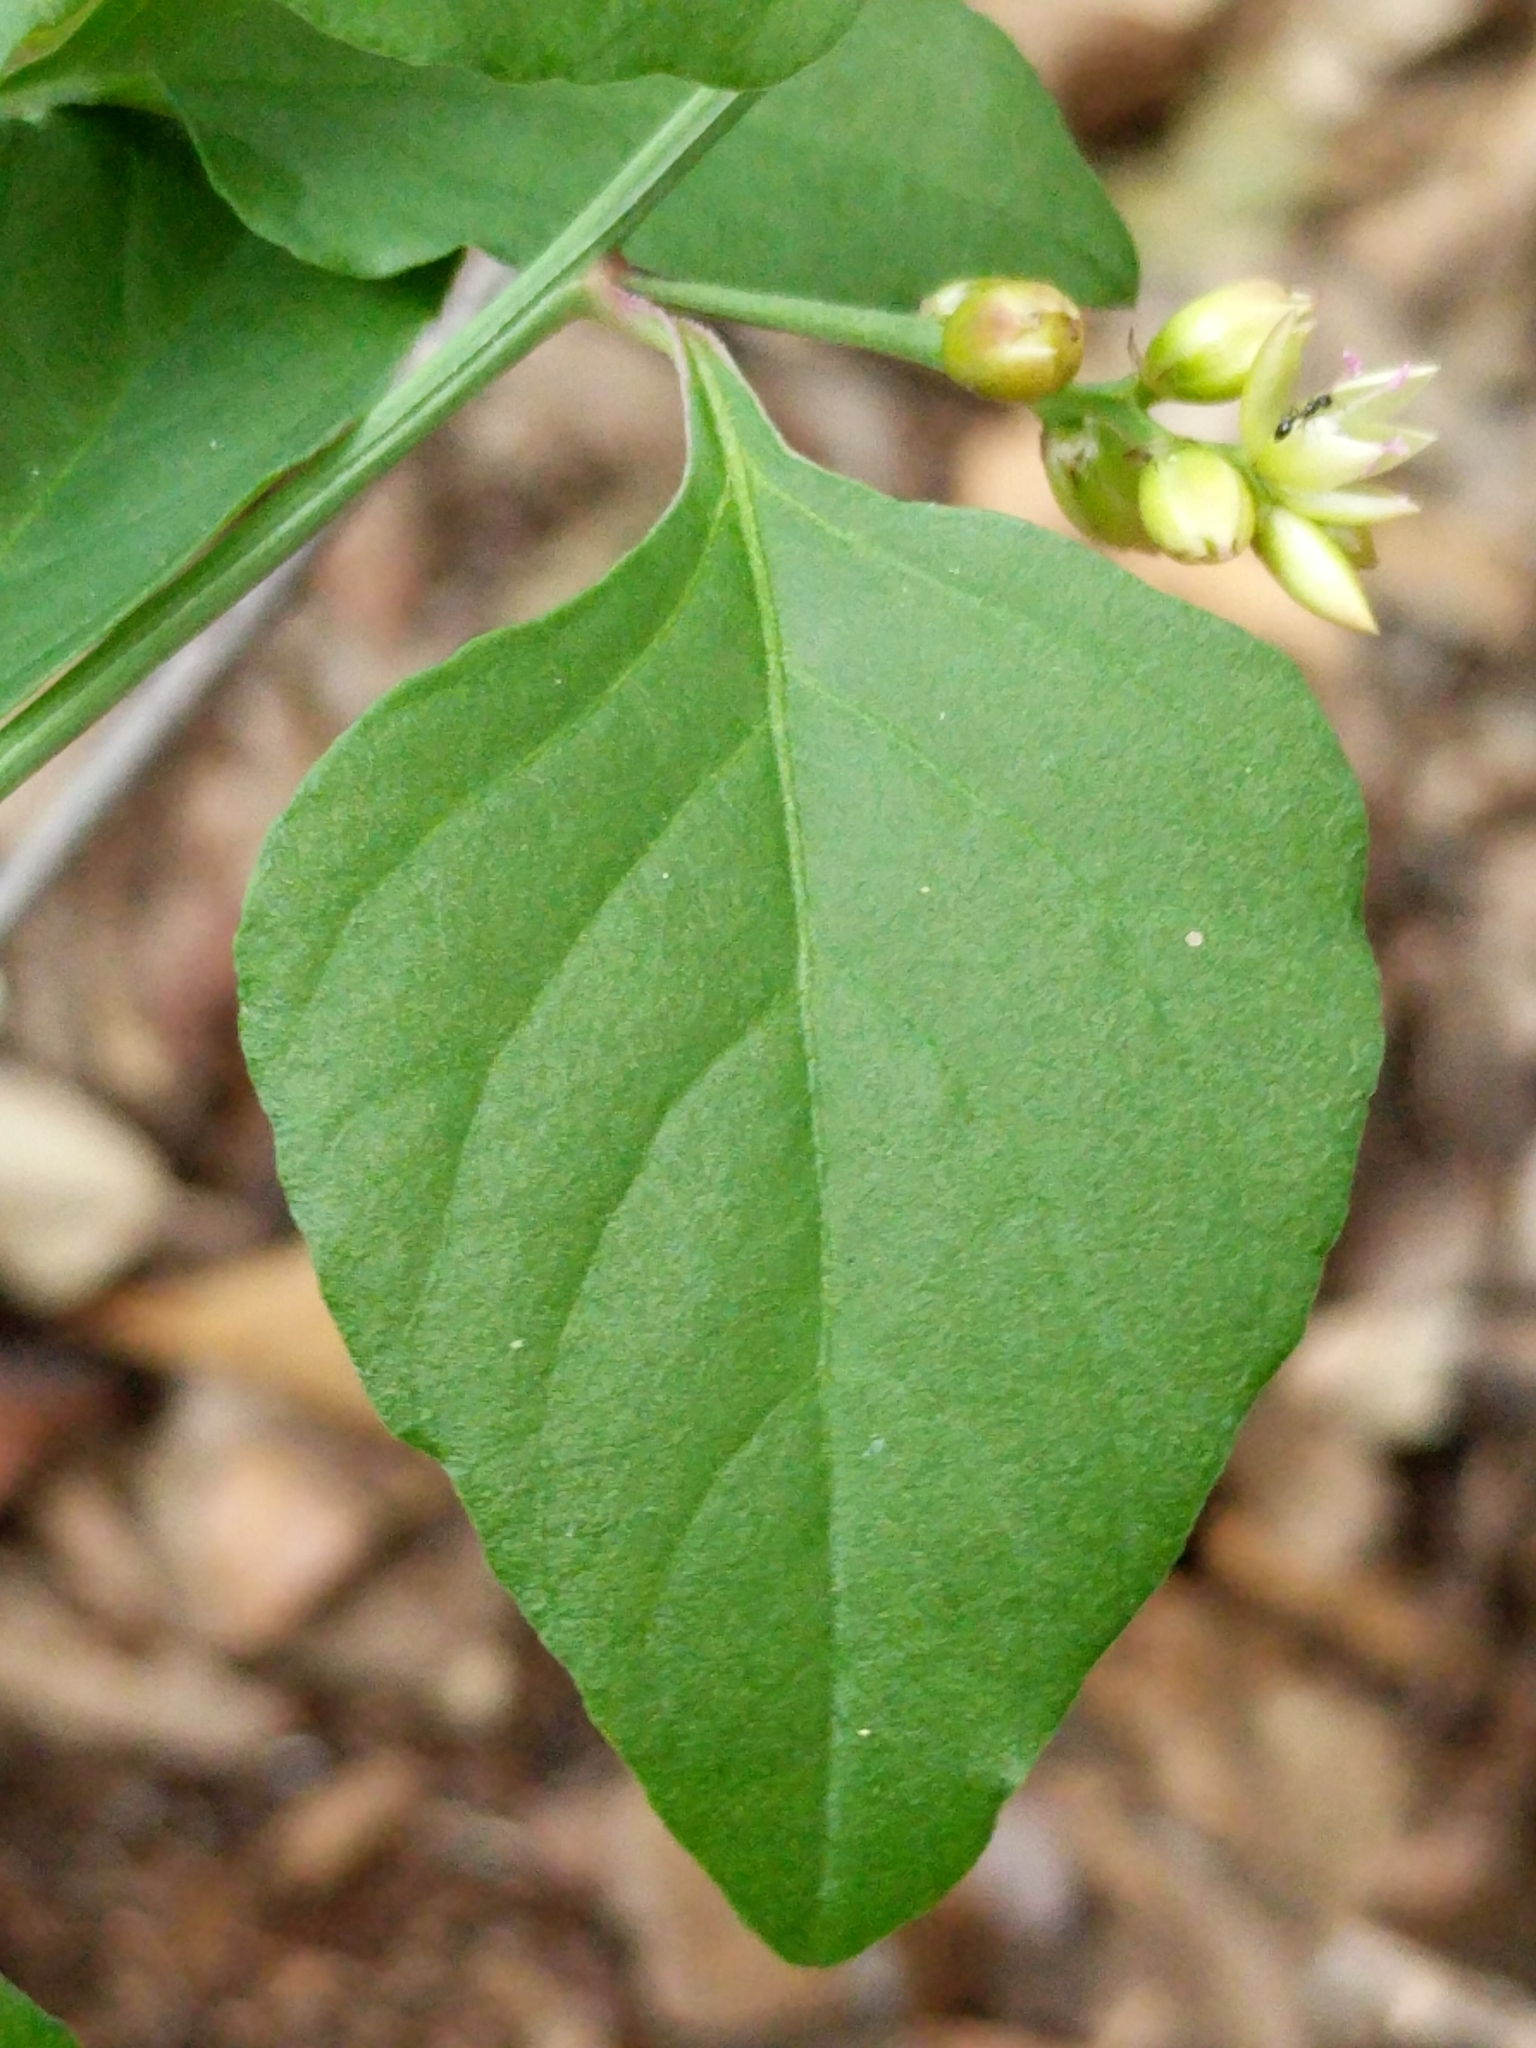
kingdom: Plantae
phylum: Tracheophyta
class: Magnoliopsida
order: Caryophyllales
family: Amaranthaceae
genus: Celosia
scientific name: Celosia nitida
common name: West indian cock's comb
